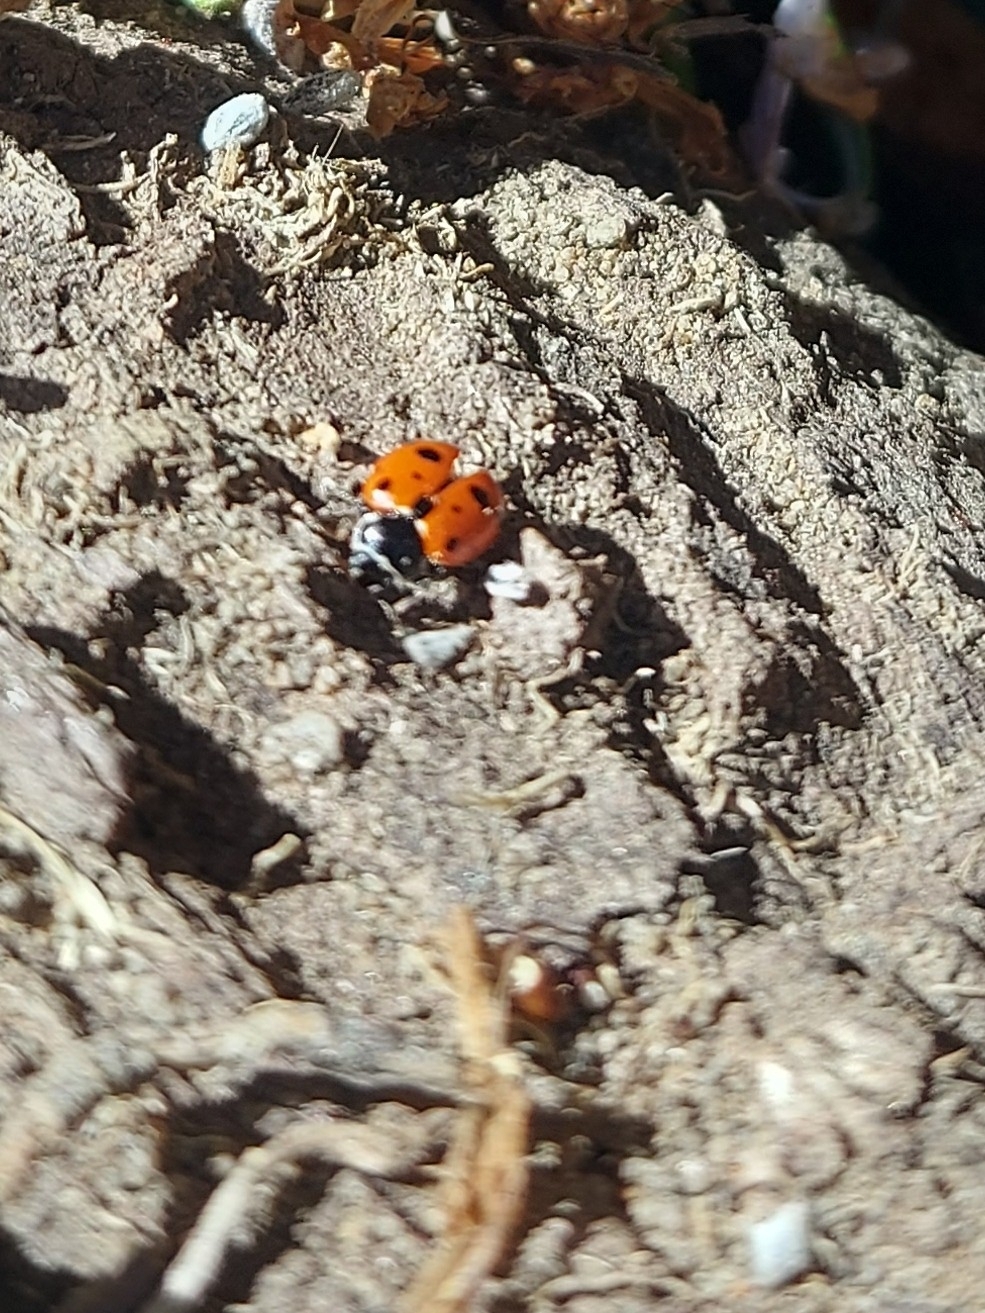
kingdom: Animalia
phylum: Arthropoda
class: Insecta
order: Coleoptera
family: Coccinellidae
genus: Hippodamia
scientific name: Hippodamia variegata
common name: Ladybird beetle
